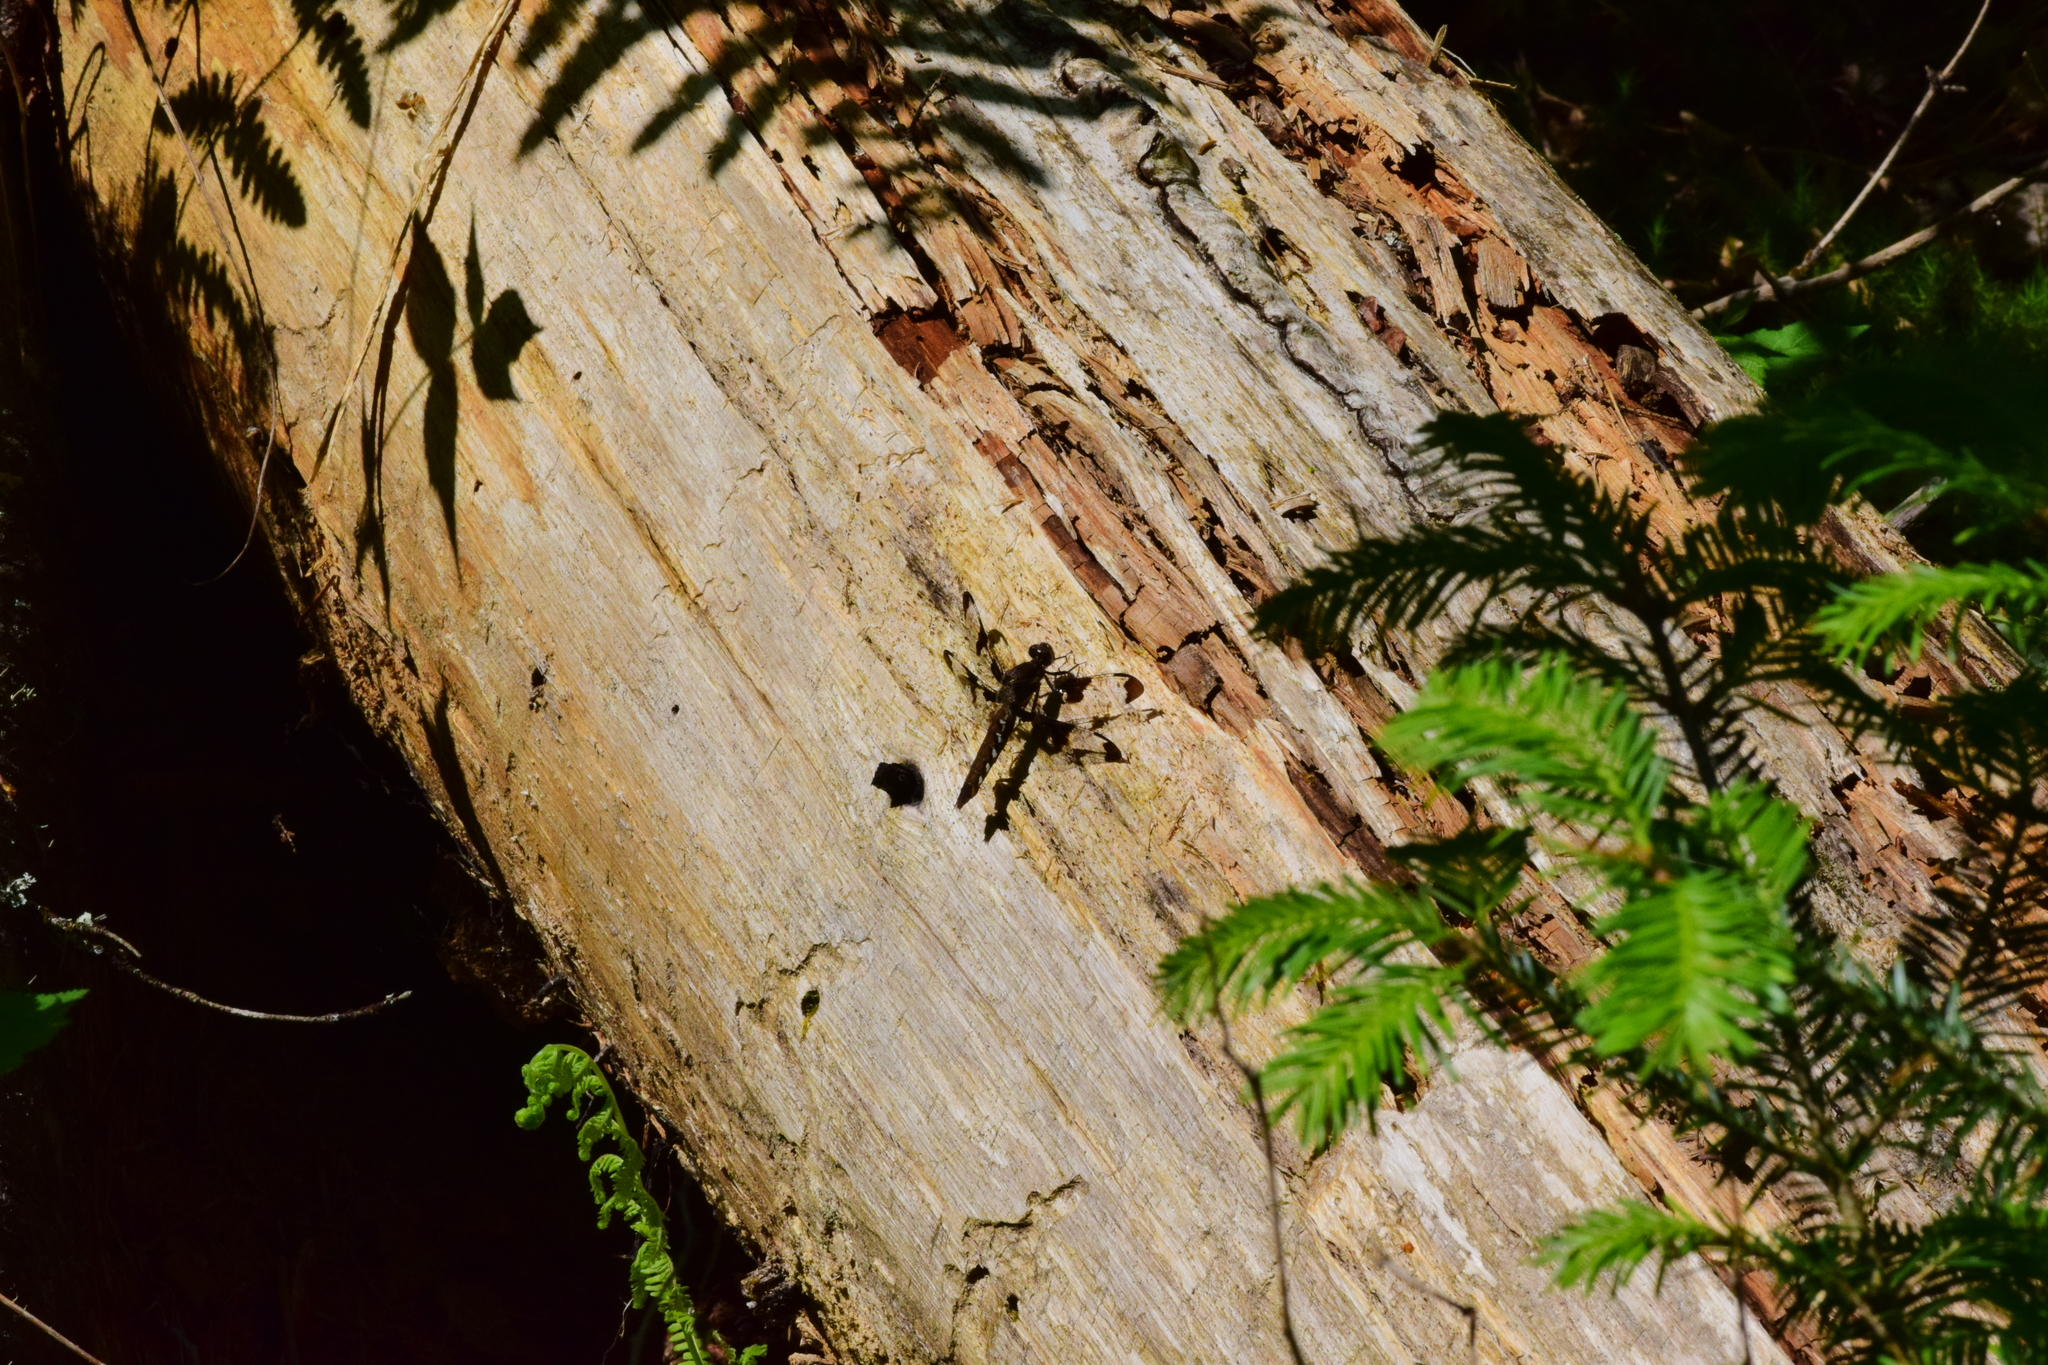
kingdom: Animalia
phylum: Arthropoda
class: Insecta
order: Odonata
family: Libellulidae
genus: Plathemis
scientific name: Plathemis lydia
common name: Common whitetail
